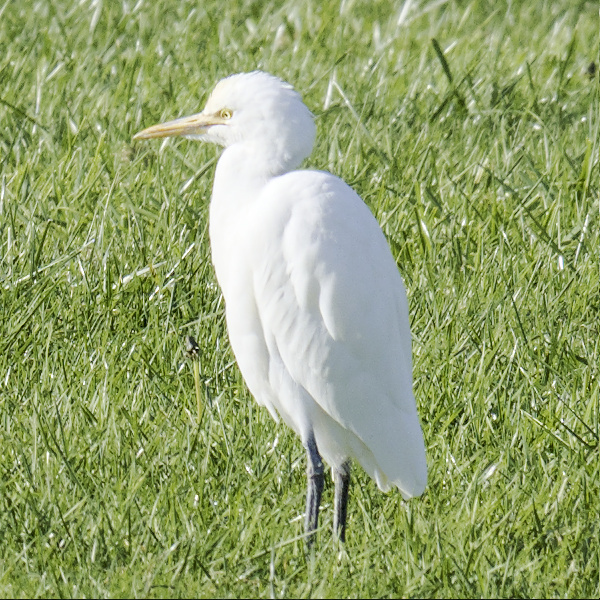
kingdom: Animalia
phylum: Chordata
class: Aves
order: Pelecaniformes
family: Ardeidae
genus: Bubulcus
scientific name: Bubulcus coromandus
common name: Eastern cattle egret
